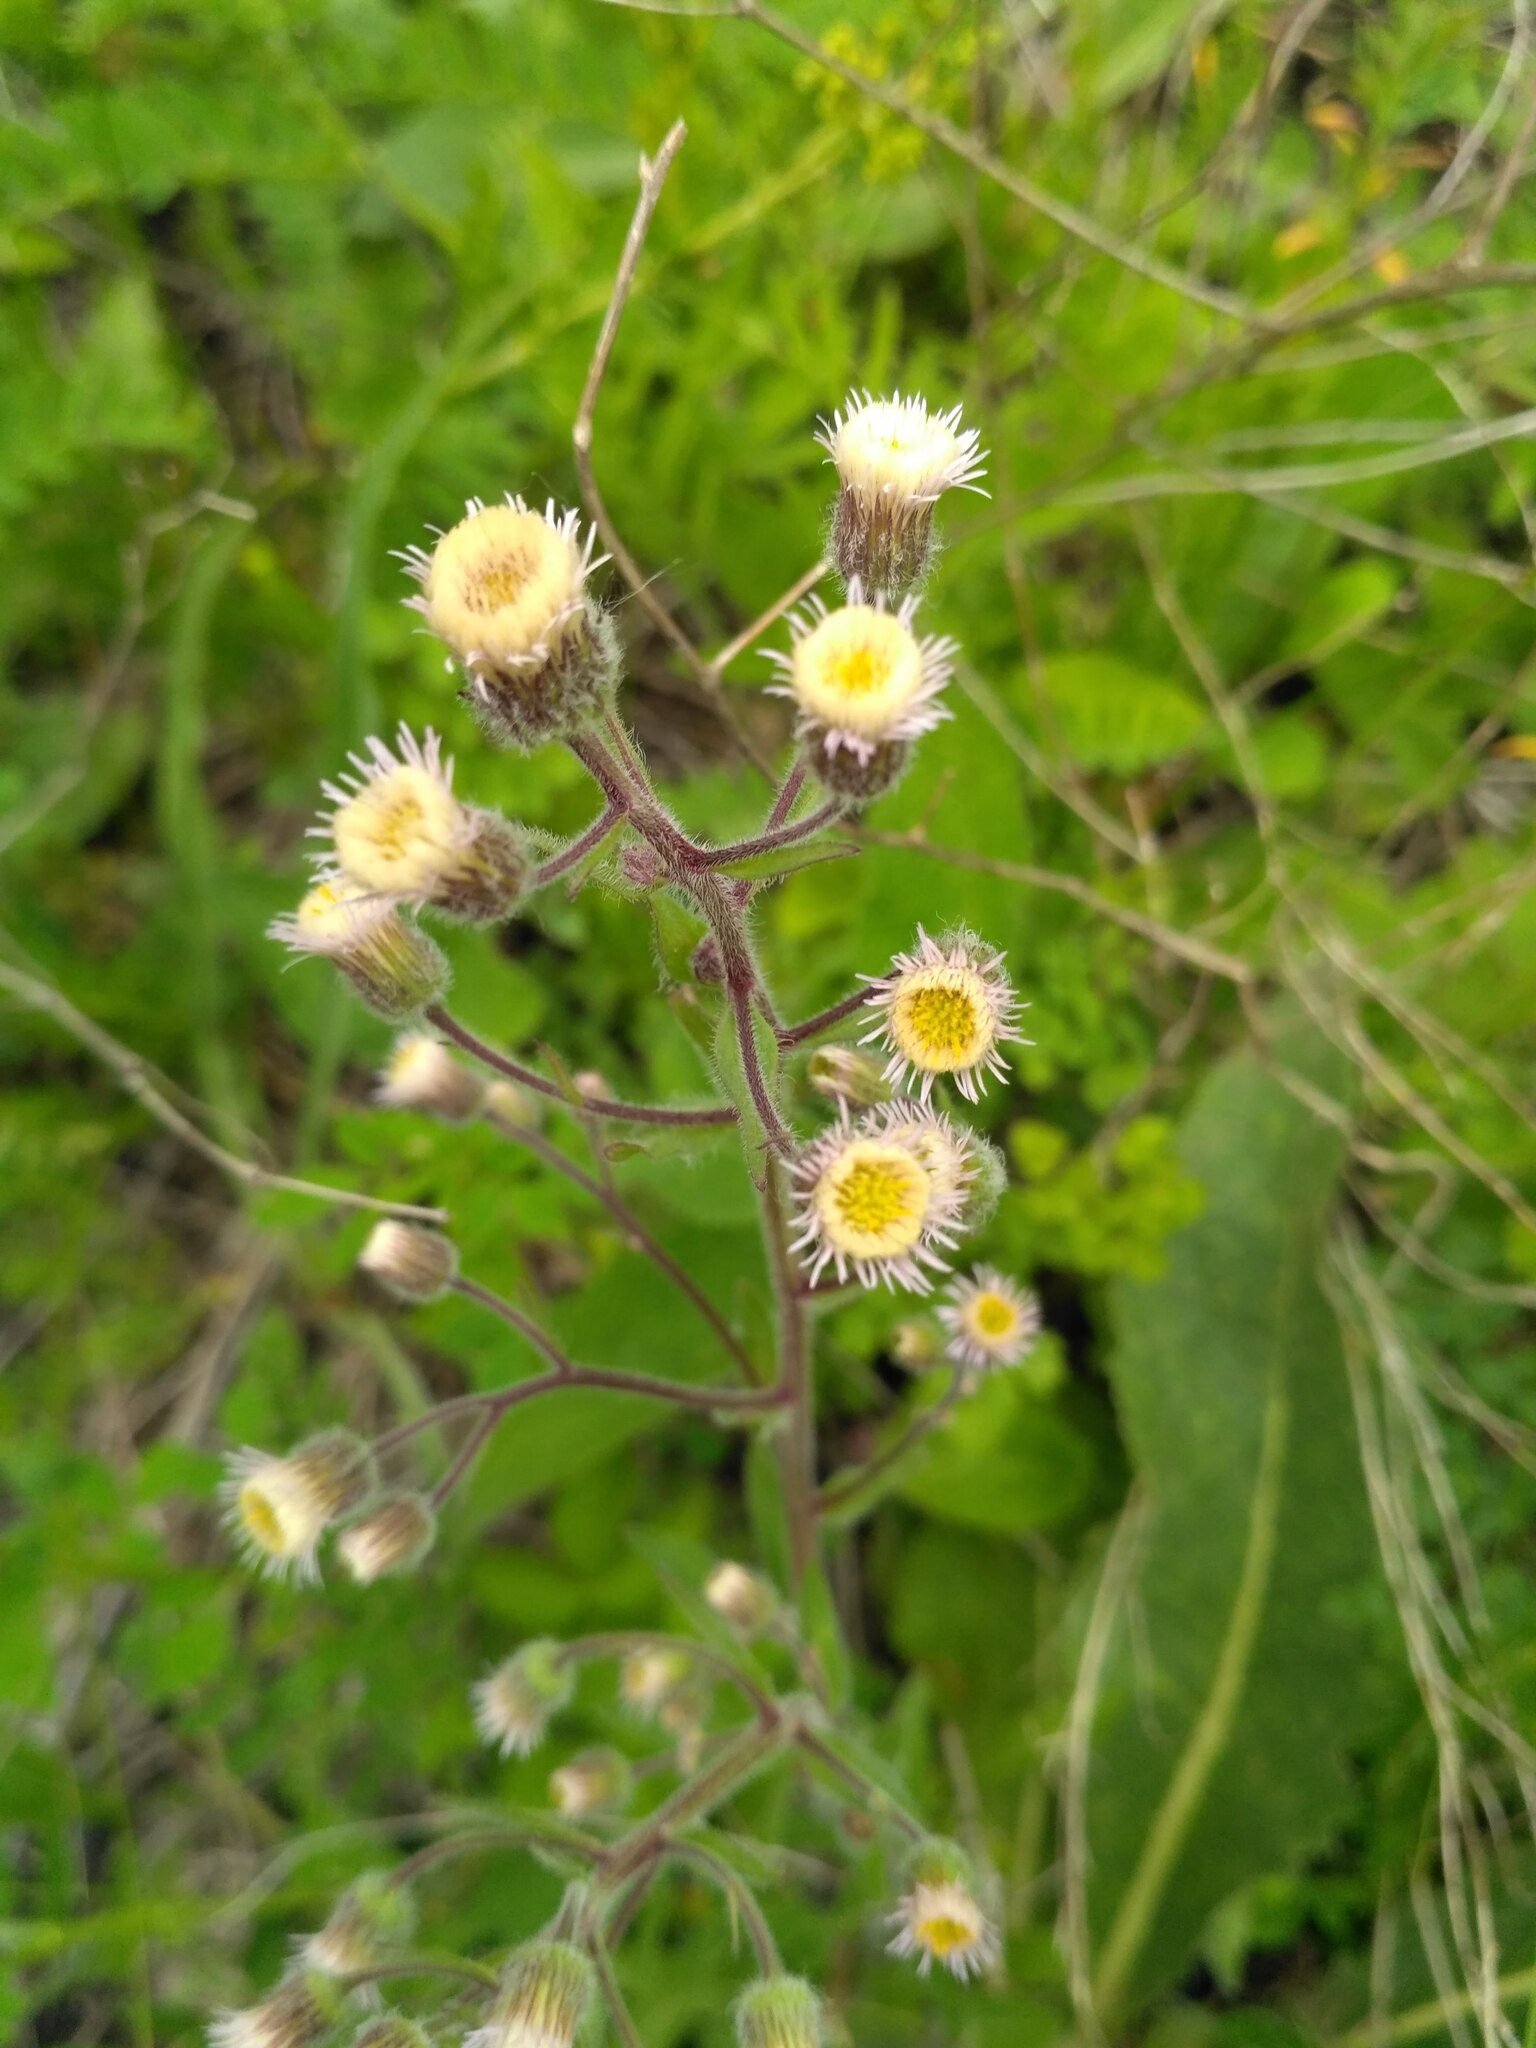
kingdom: Plantae
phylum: Tracheophyta
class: Magnoliopsida
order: Asterales
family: Asteraceae
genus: Erigeron
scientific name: Erigeron acris
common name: Blue fleabane
